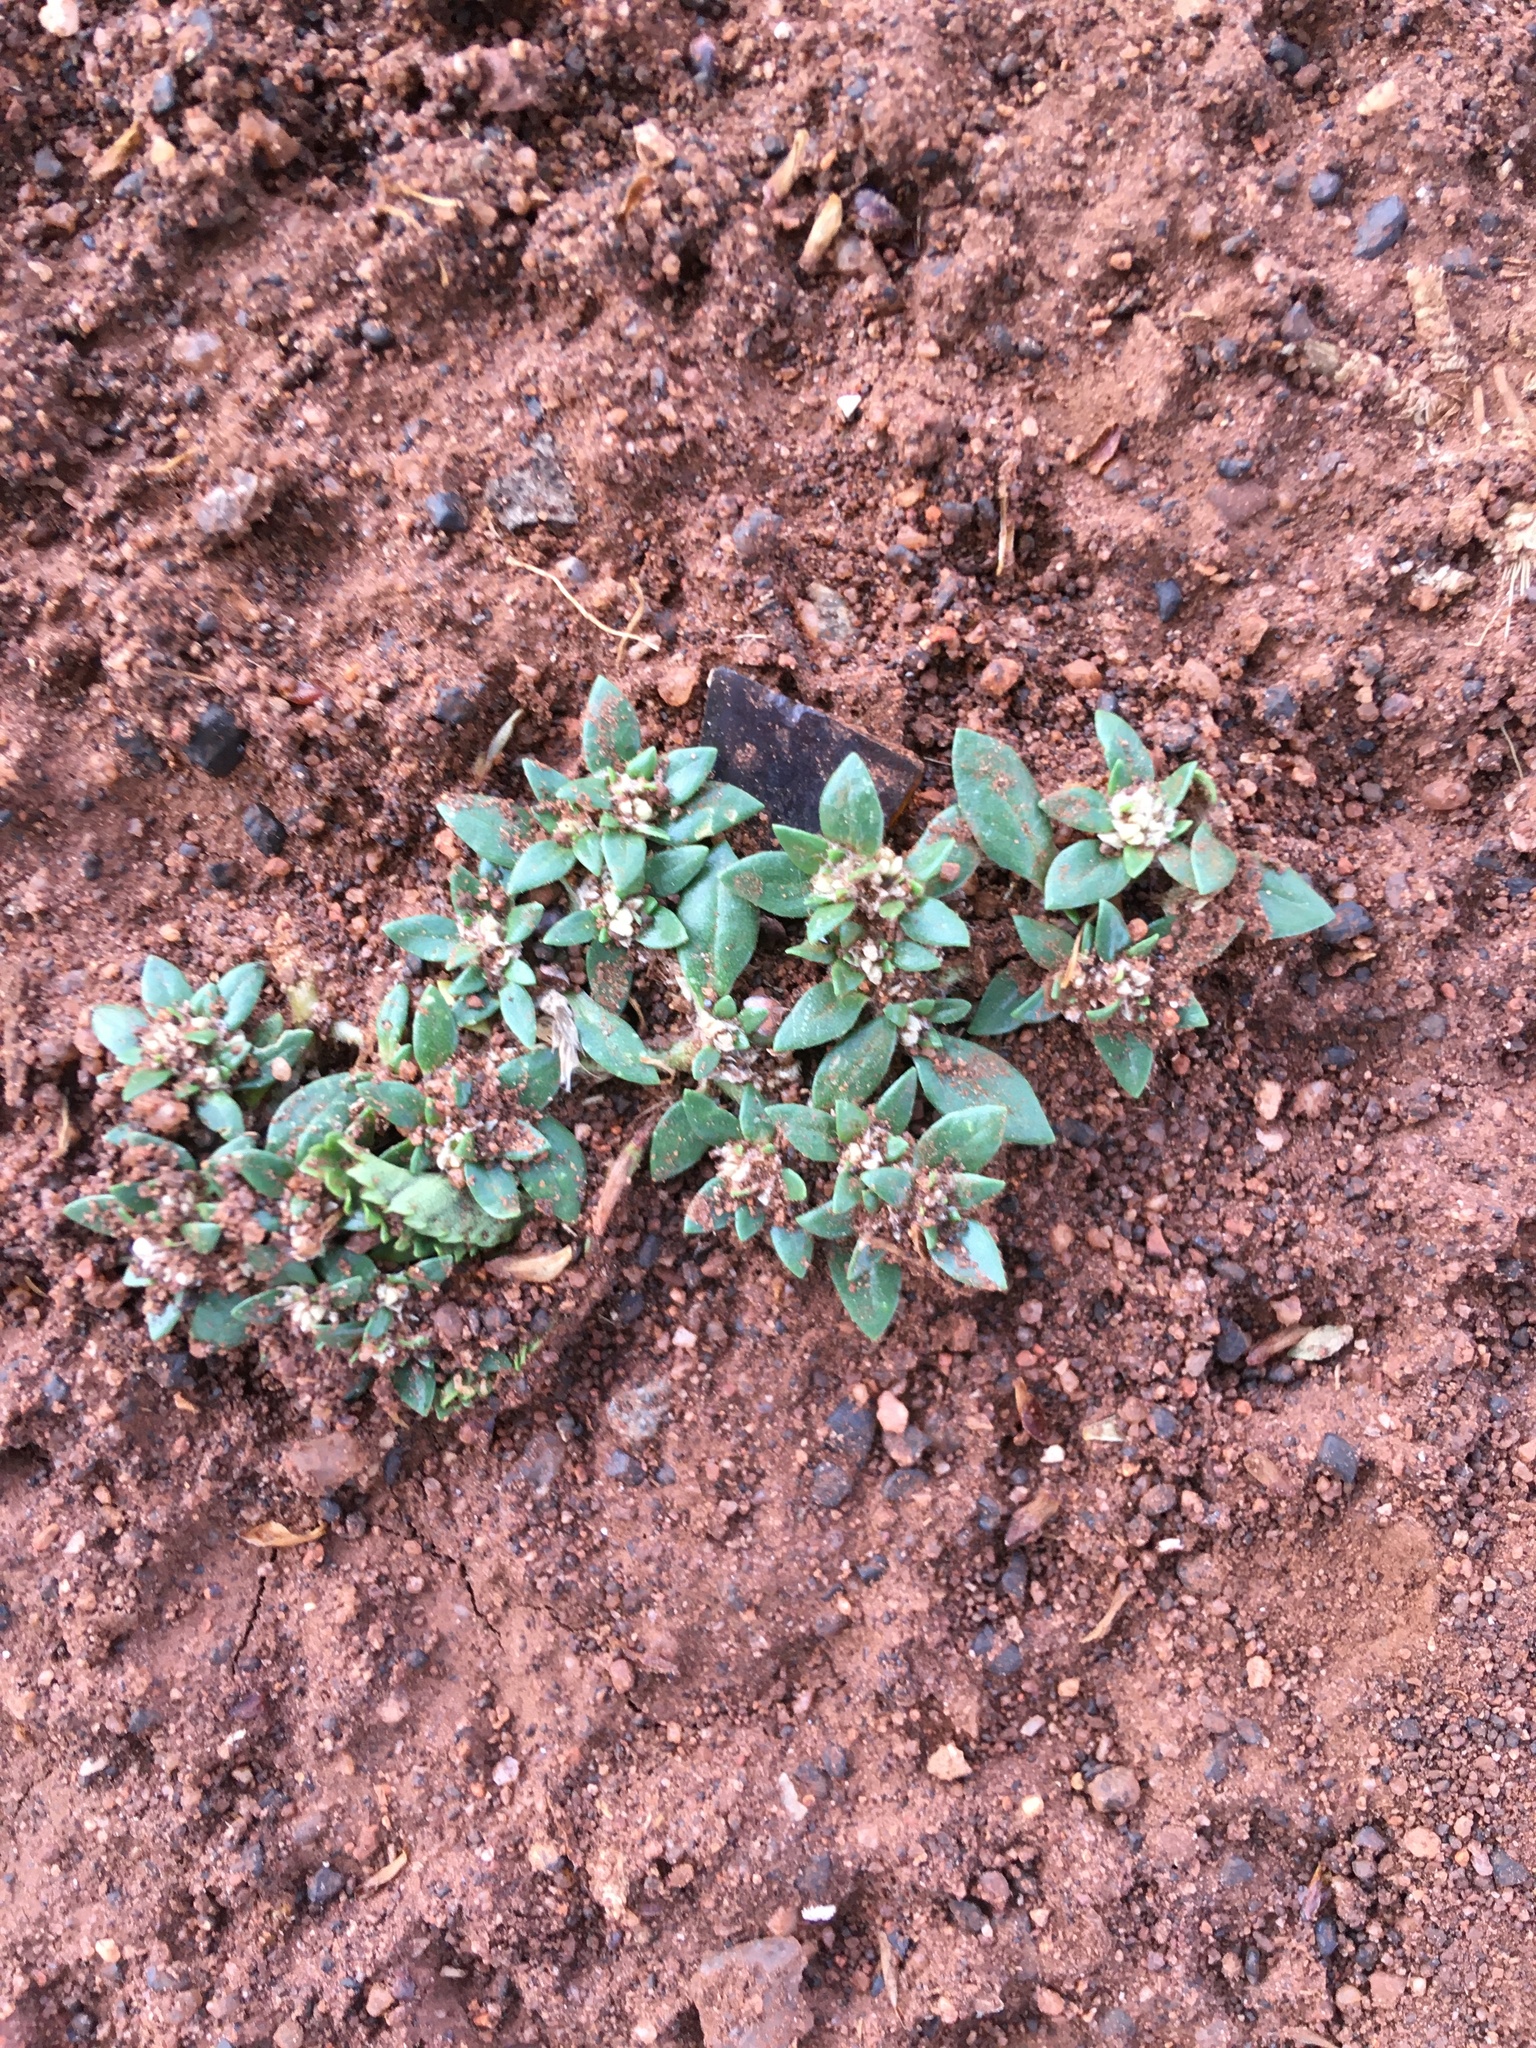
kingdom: Plantae
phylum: Tracheophyta
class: Magnoliopsida
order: Caryophyllales
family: Amaranthaceae
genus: Guilleminea
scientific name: Guilleminea densa
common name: Small matweed
